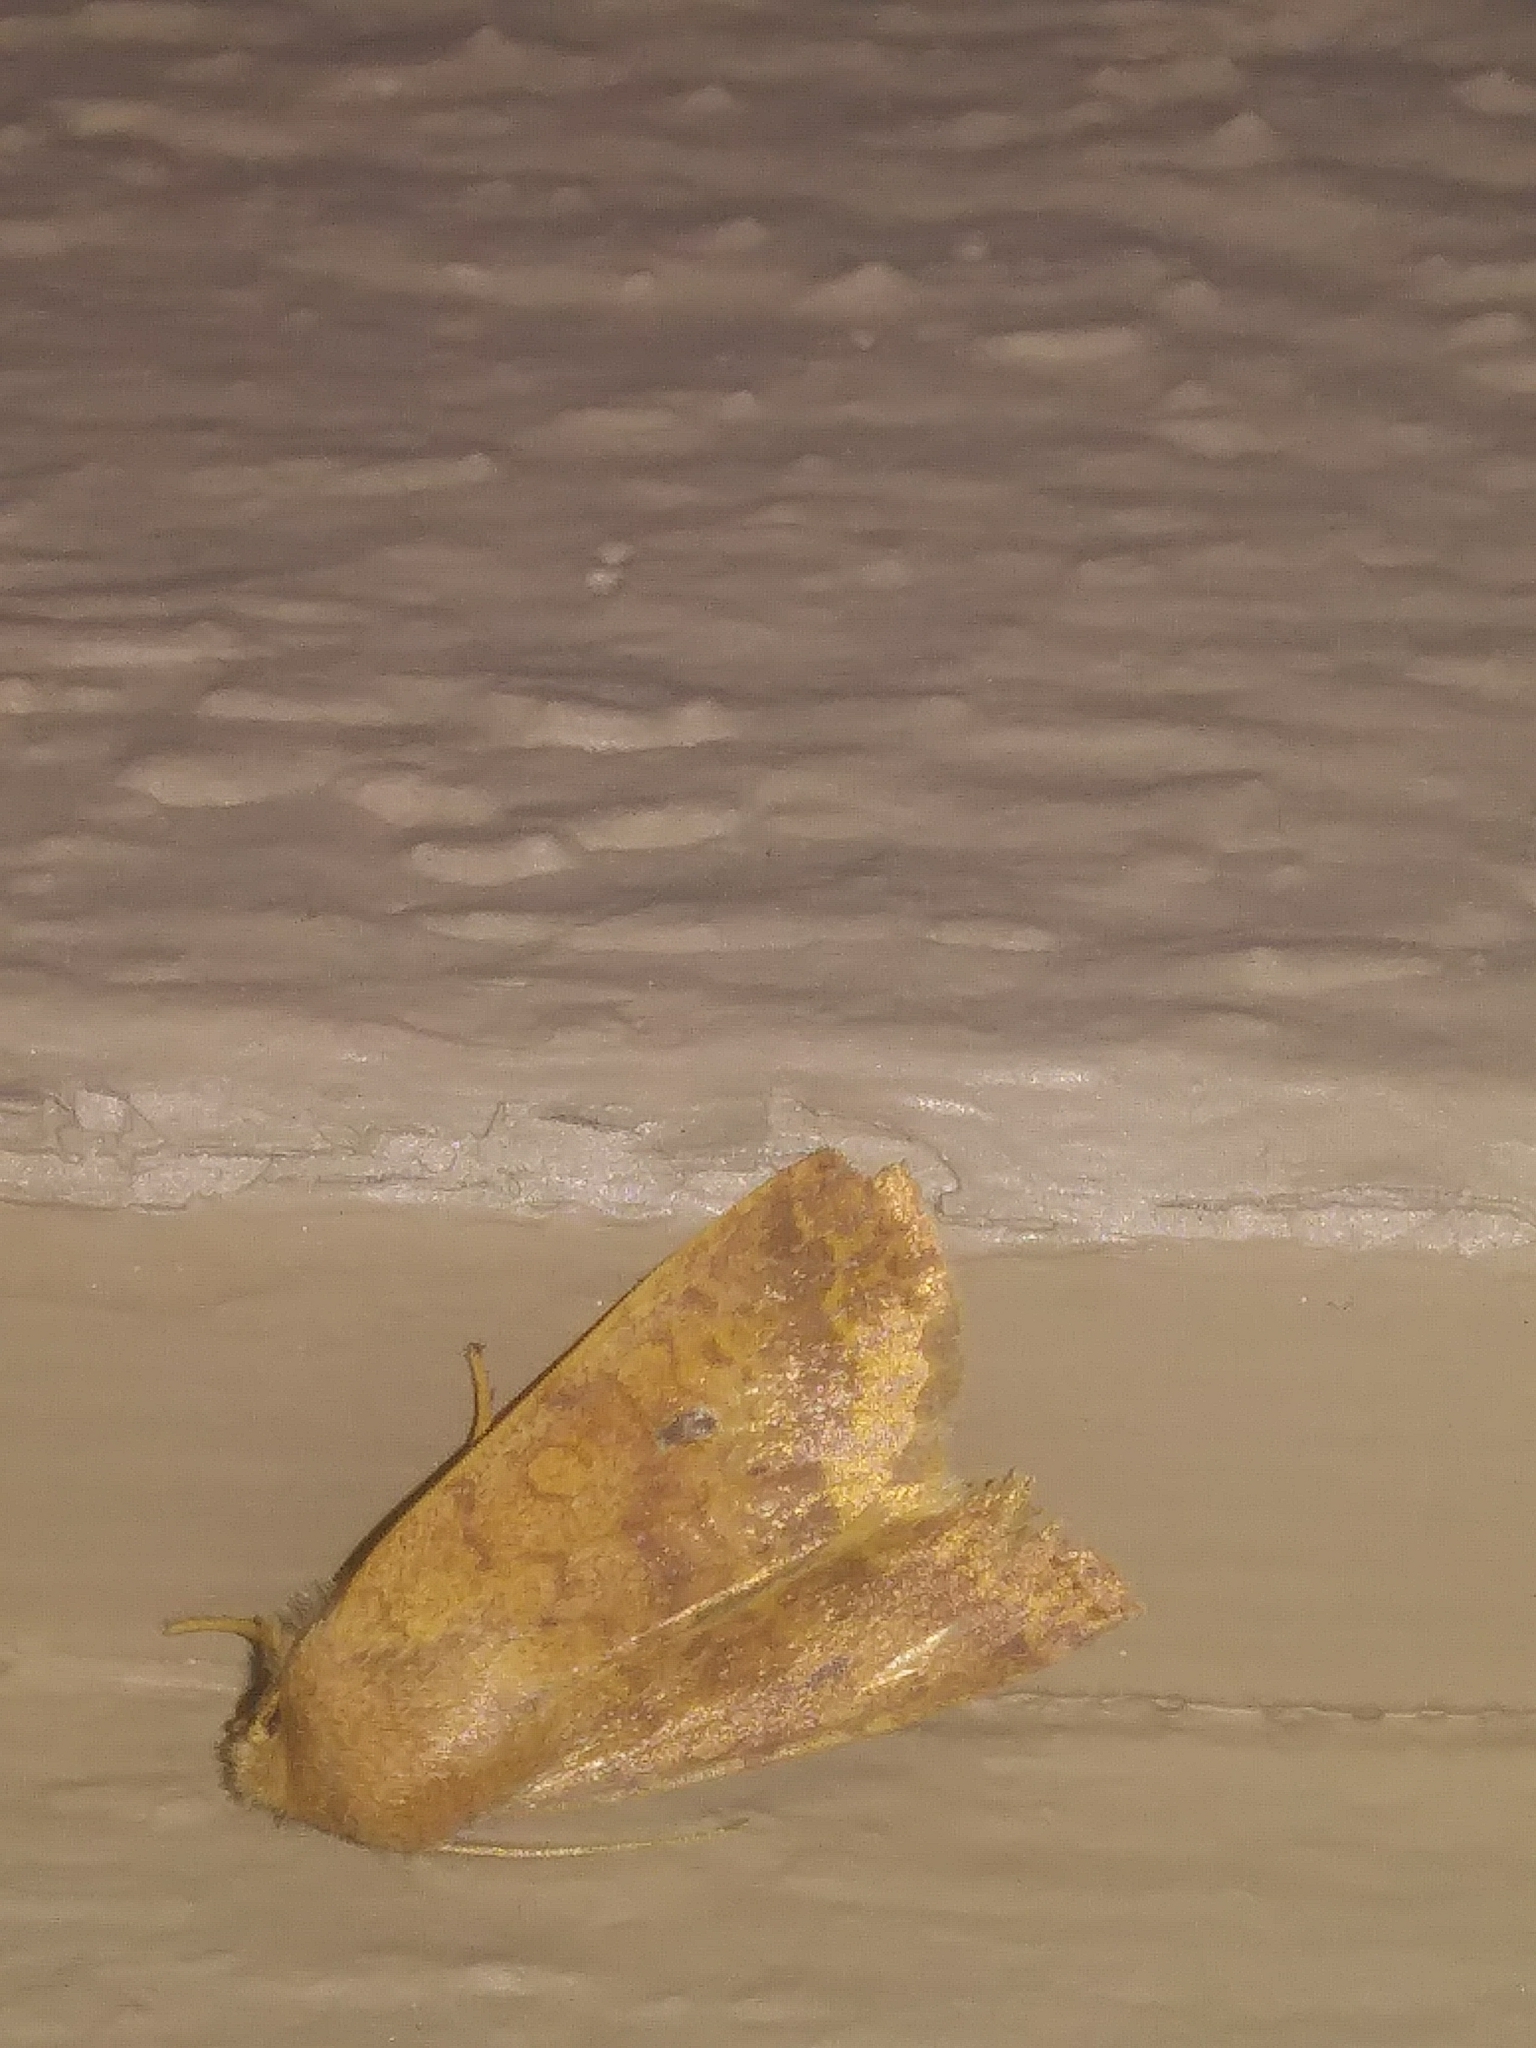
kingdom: Animalia
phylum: Arthropoda
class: Insecta
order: Lepidoptera
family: Noctuidae
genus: Agrochola
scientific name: Agrochola bicolorago
